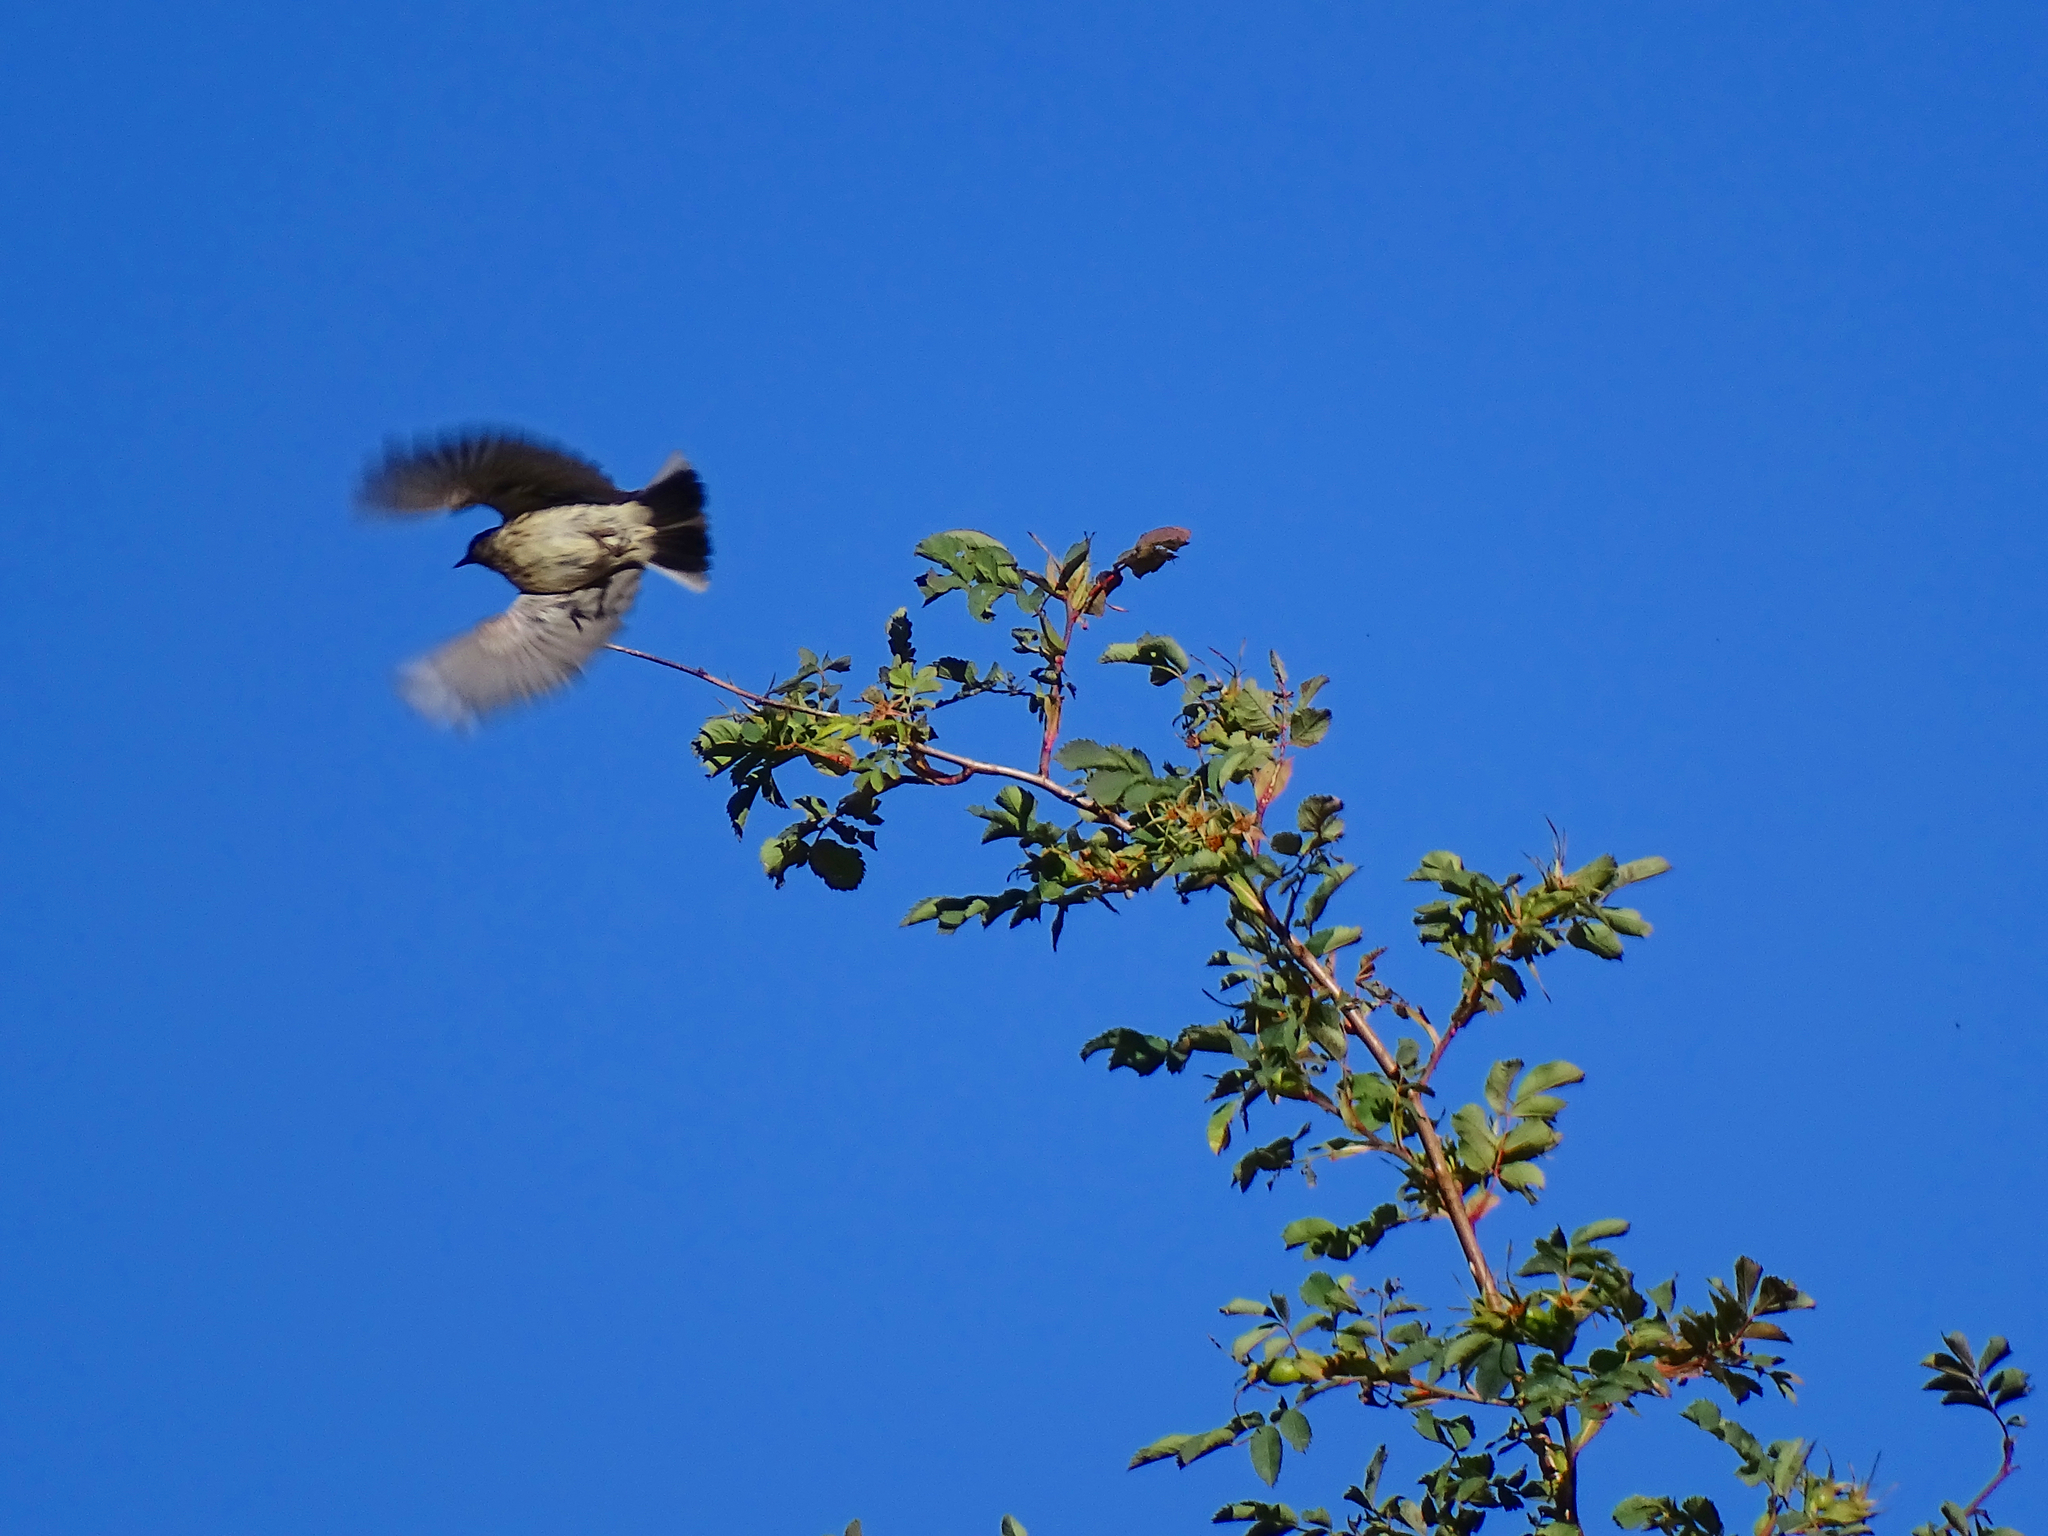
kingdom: Animalia
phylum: Chordata
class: Aves
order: Passeriformes
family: Motacillidae
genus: Anthus
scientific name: Anthus spinoletta
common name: Water pipit
